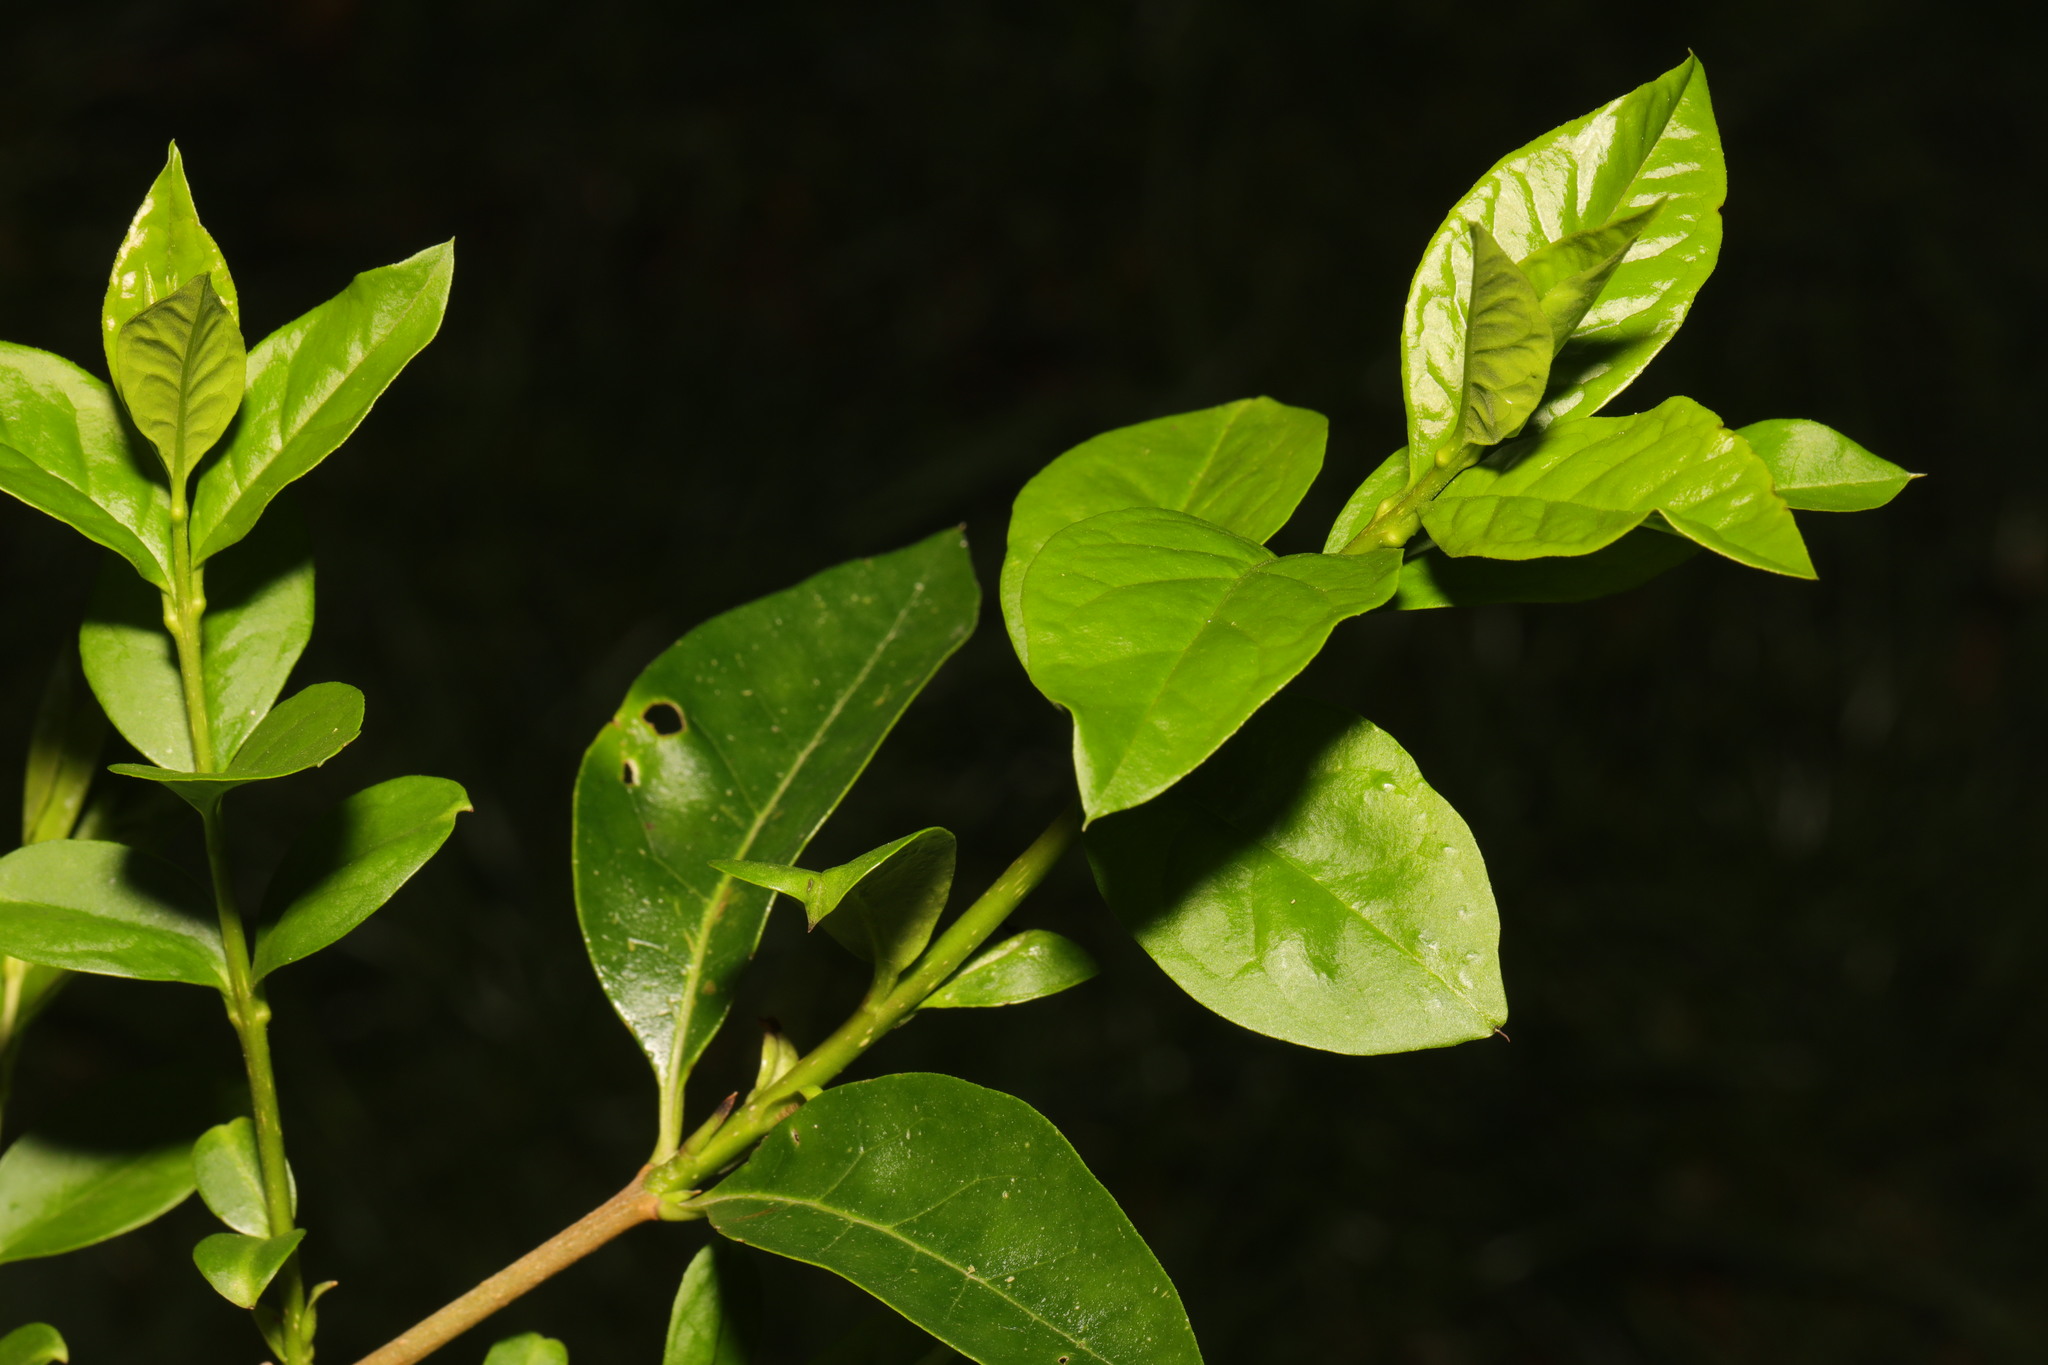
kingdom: Plantae
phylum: Tracheophyta
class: Magnoliopsida
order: Lamiales
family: Oleaceae
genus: Ligustrum
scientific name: Ligustrum ovalifolium
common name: California privet
